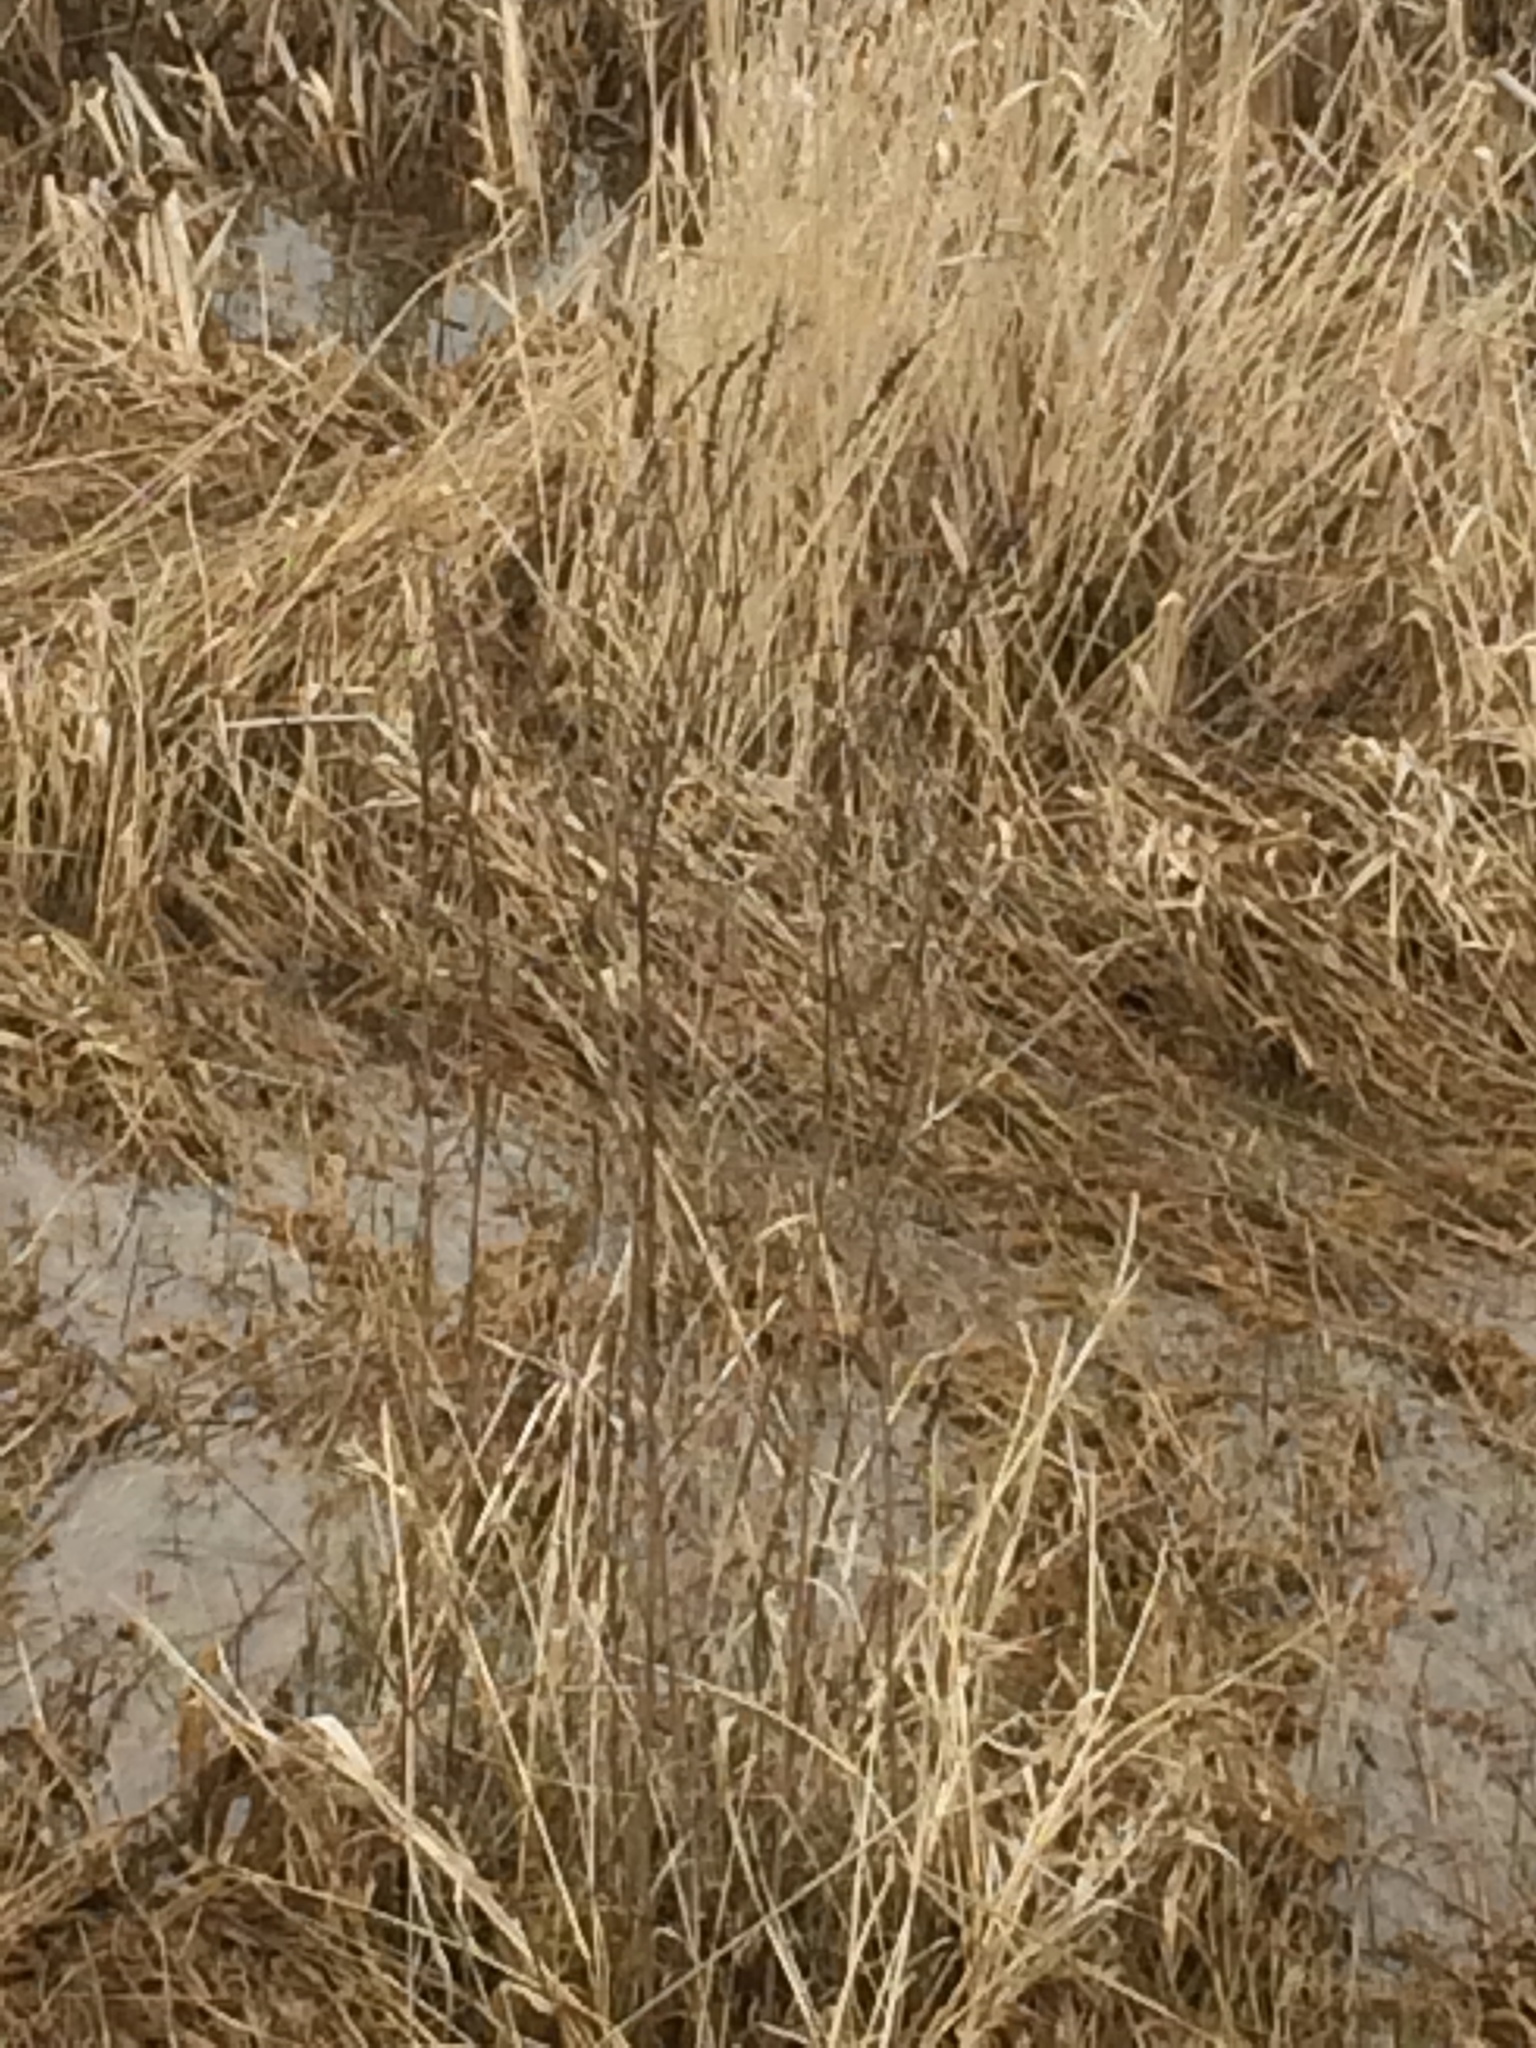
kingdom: Plantae
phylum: Tracheophyta
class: Magnoliopsida
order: Lamiales
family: Verbenaceae
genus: Verbena
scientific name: Verbena hastata
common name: American blue vervain
